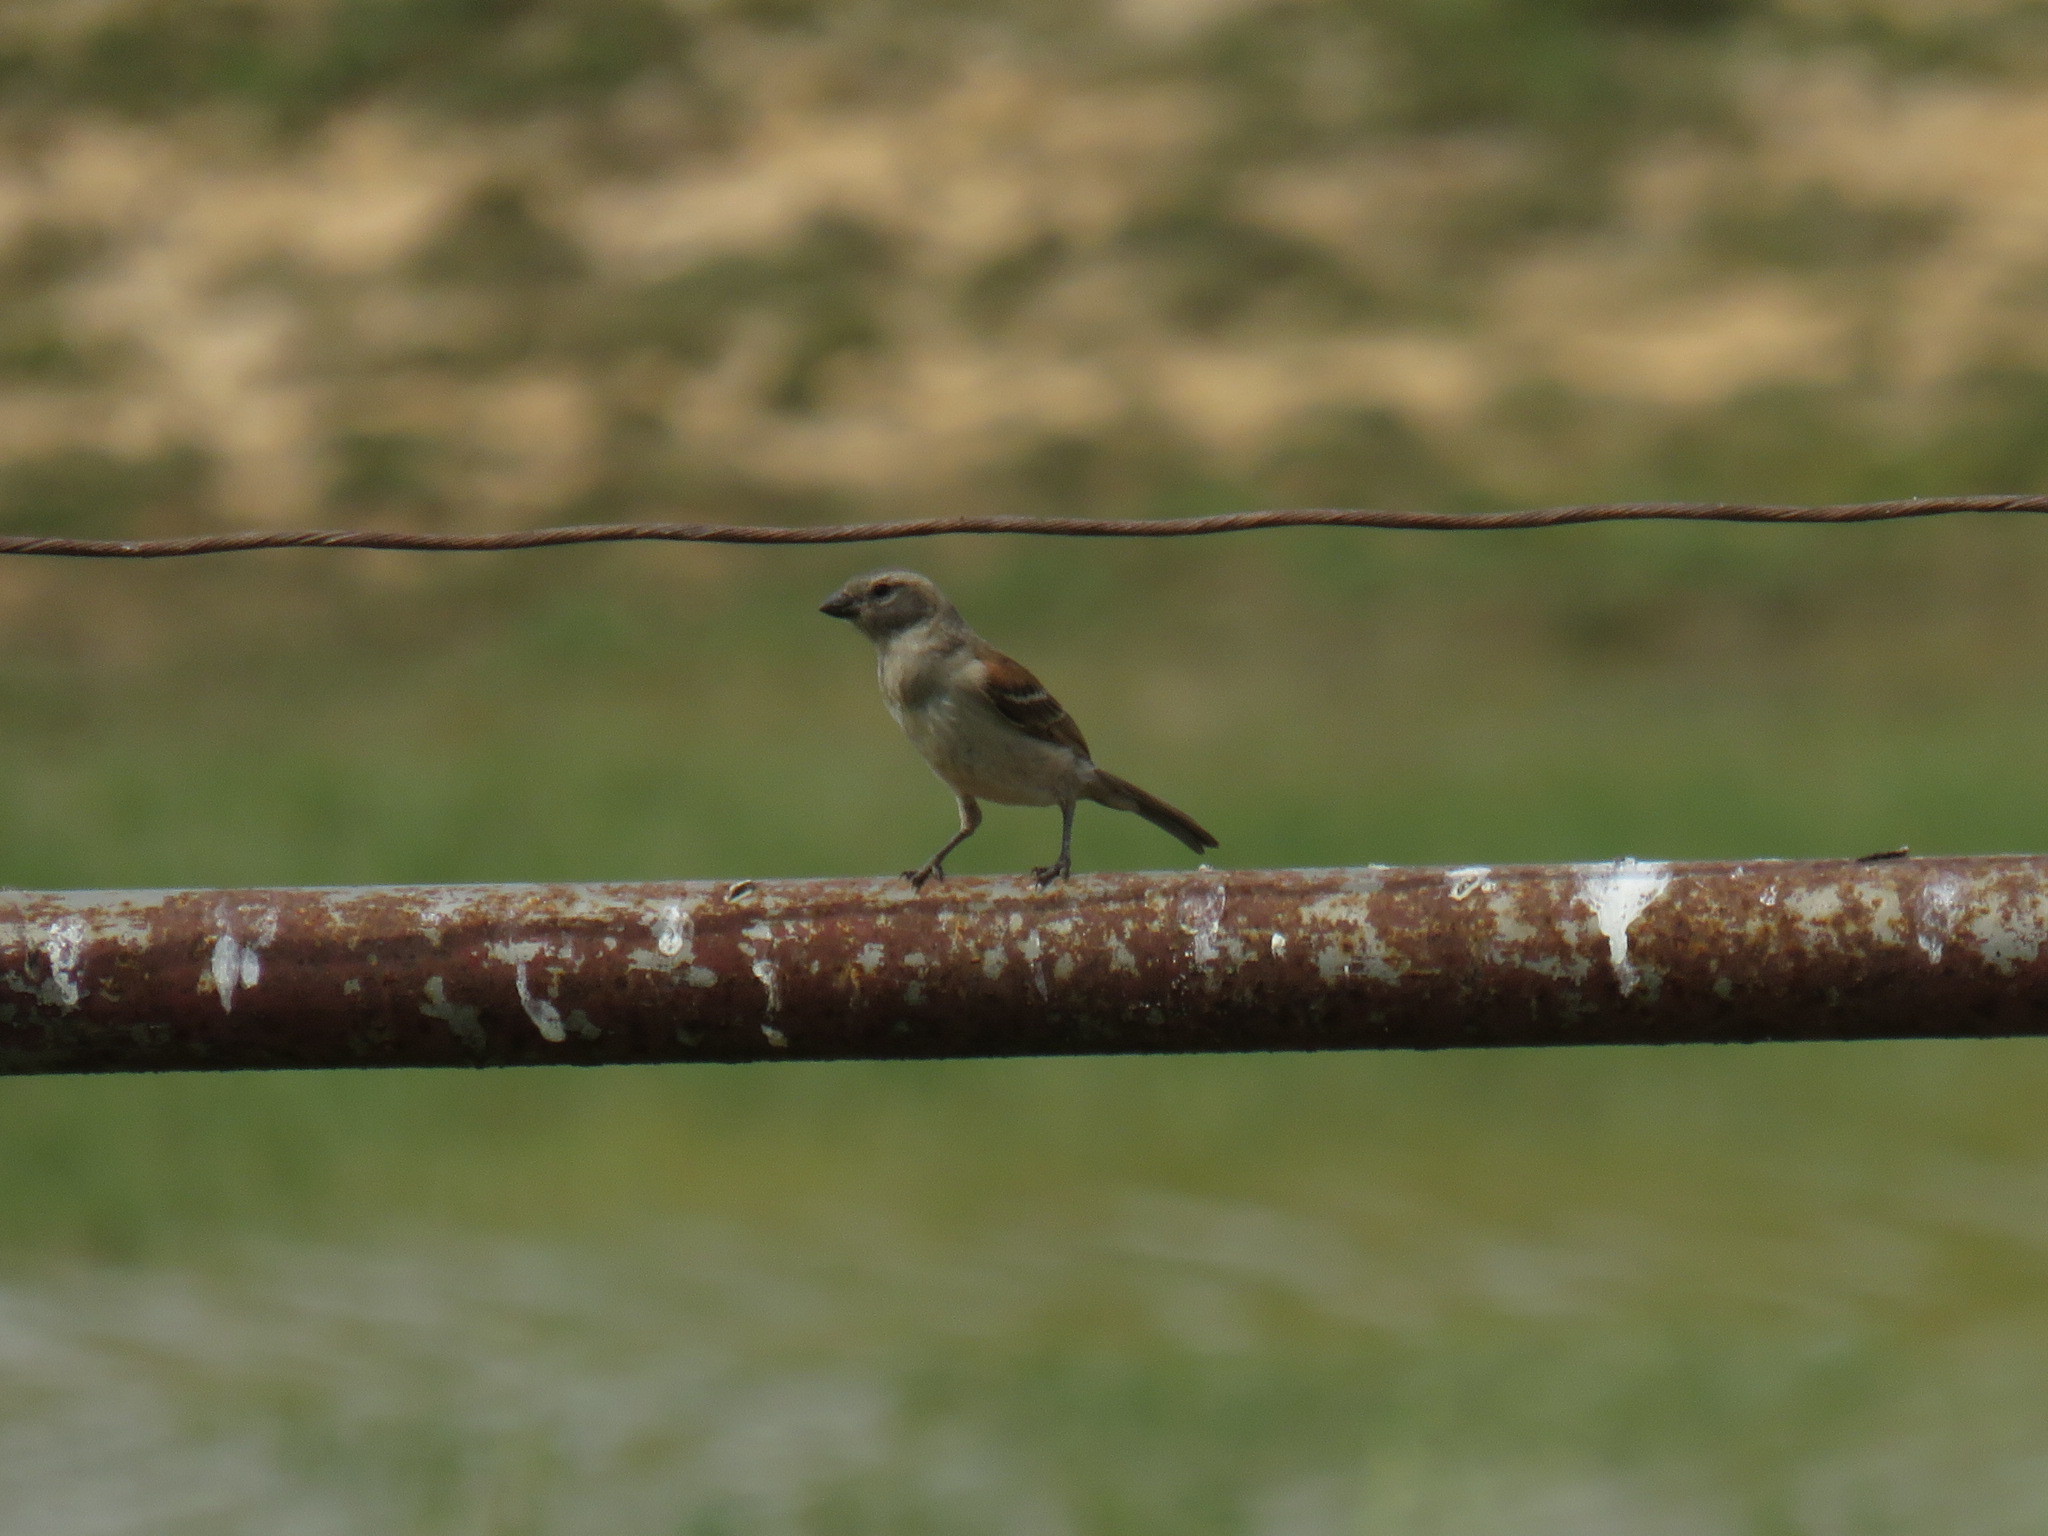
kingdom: Animalia
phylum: Chordata
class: Aves
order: Passeriformes
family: Passeridae
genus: Passer
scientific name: Passer diffusus
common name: Southern grey-headed sparrow
